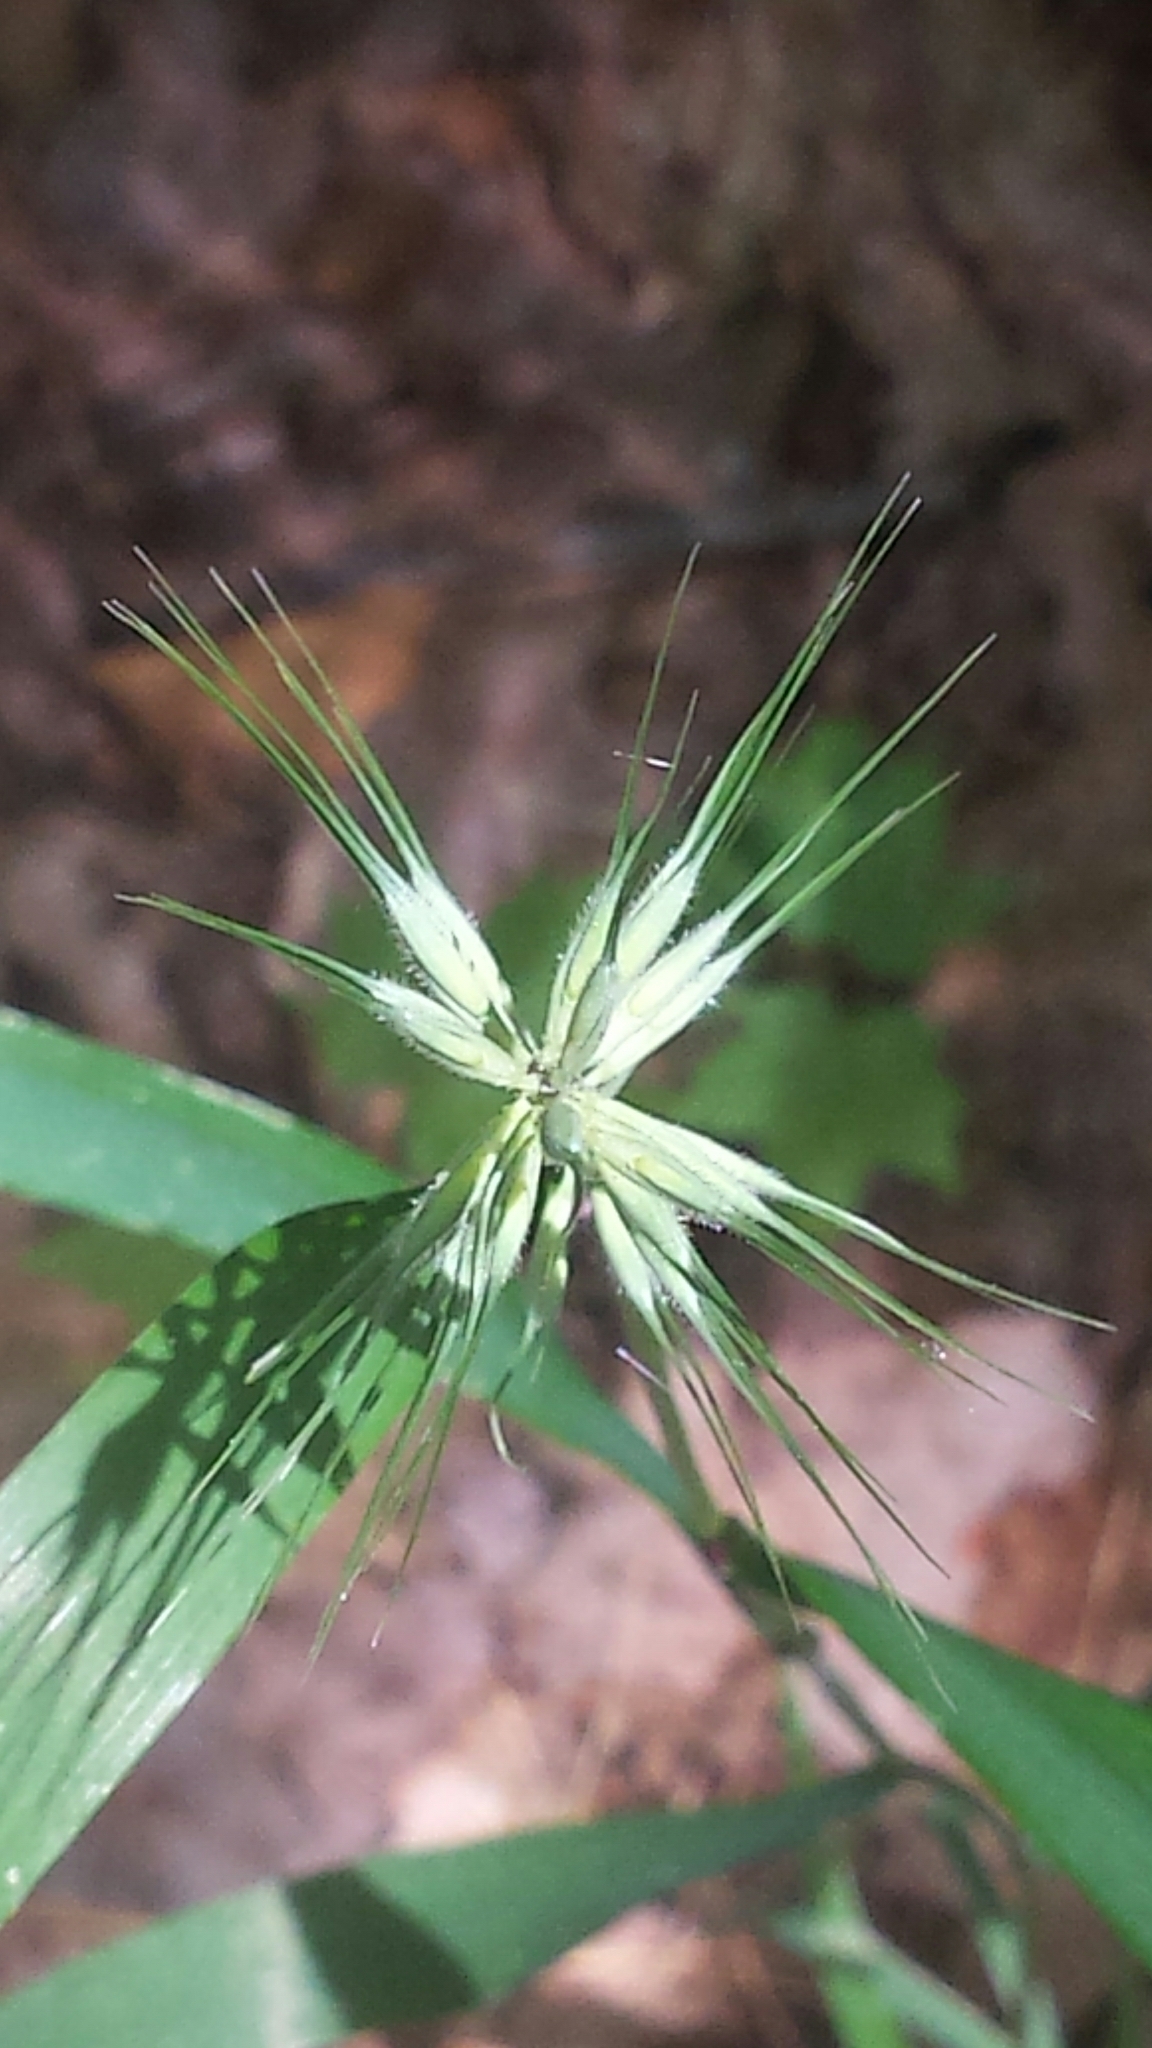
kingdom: Plantae
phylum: Tracheophyta
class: Liliopsida
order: Poales
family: Poaceae
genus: Elymus
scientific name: Elymus hystrix
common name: Bottlebrush grass
